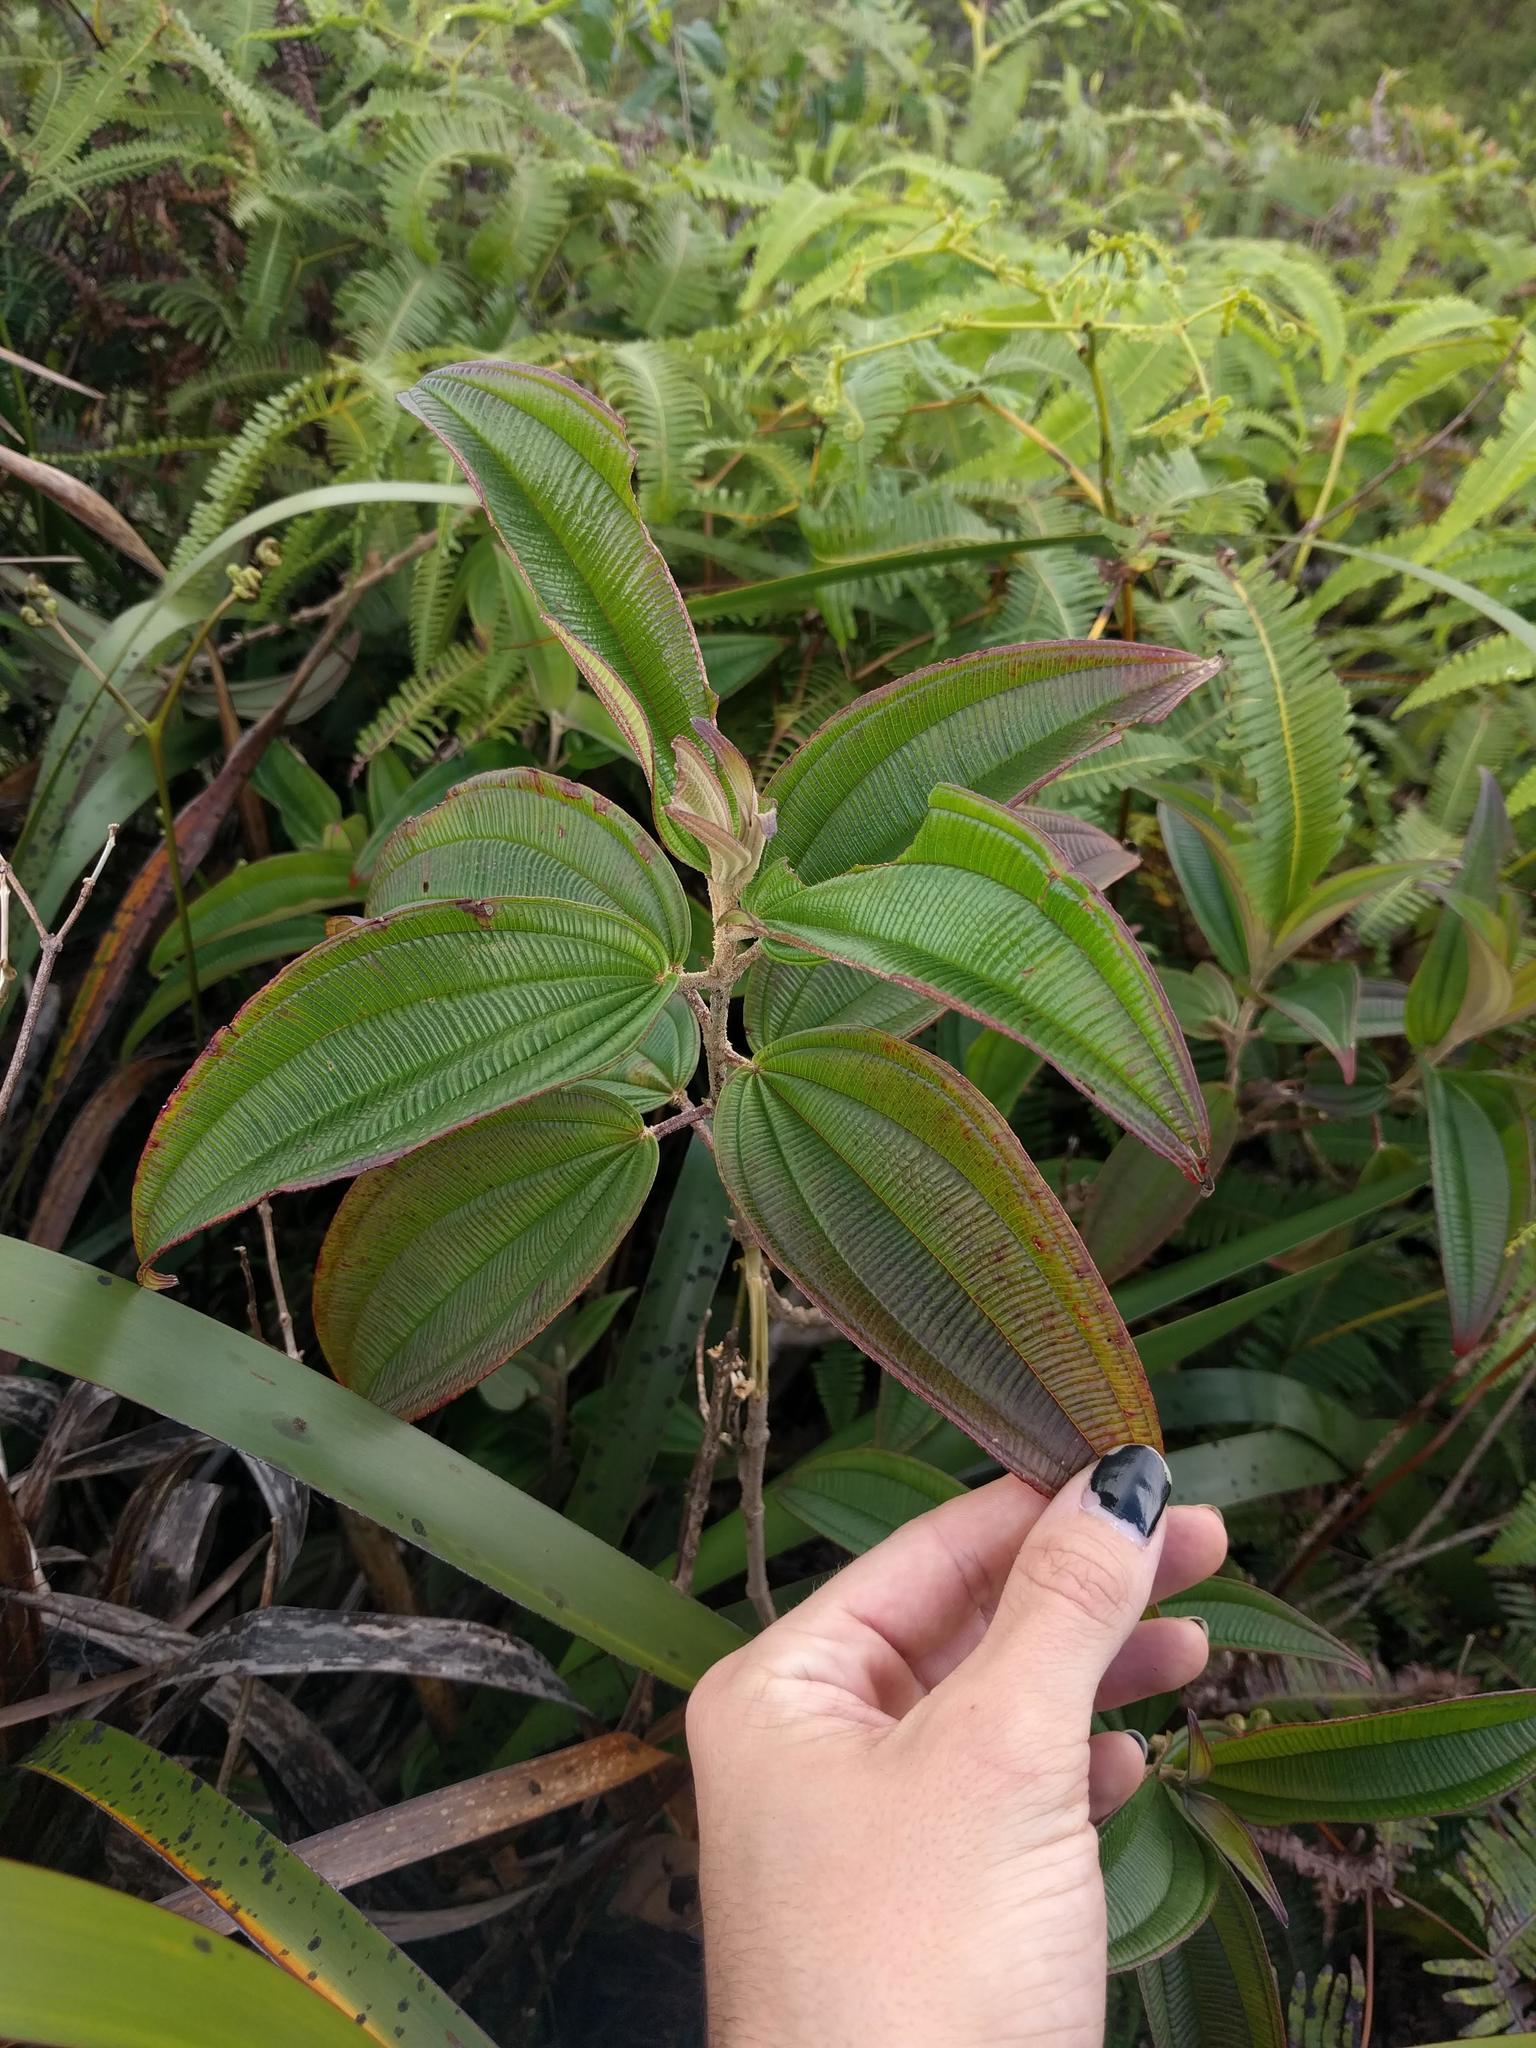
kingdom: Plantae
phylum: Tracheophyta
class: Magnoliopsida
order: Myrtales
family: Melastomataceae
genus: Oxyspora
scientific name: Oxyspora paniculata
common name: Bristletips
